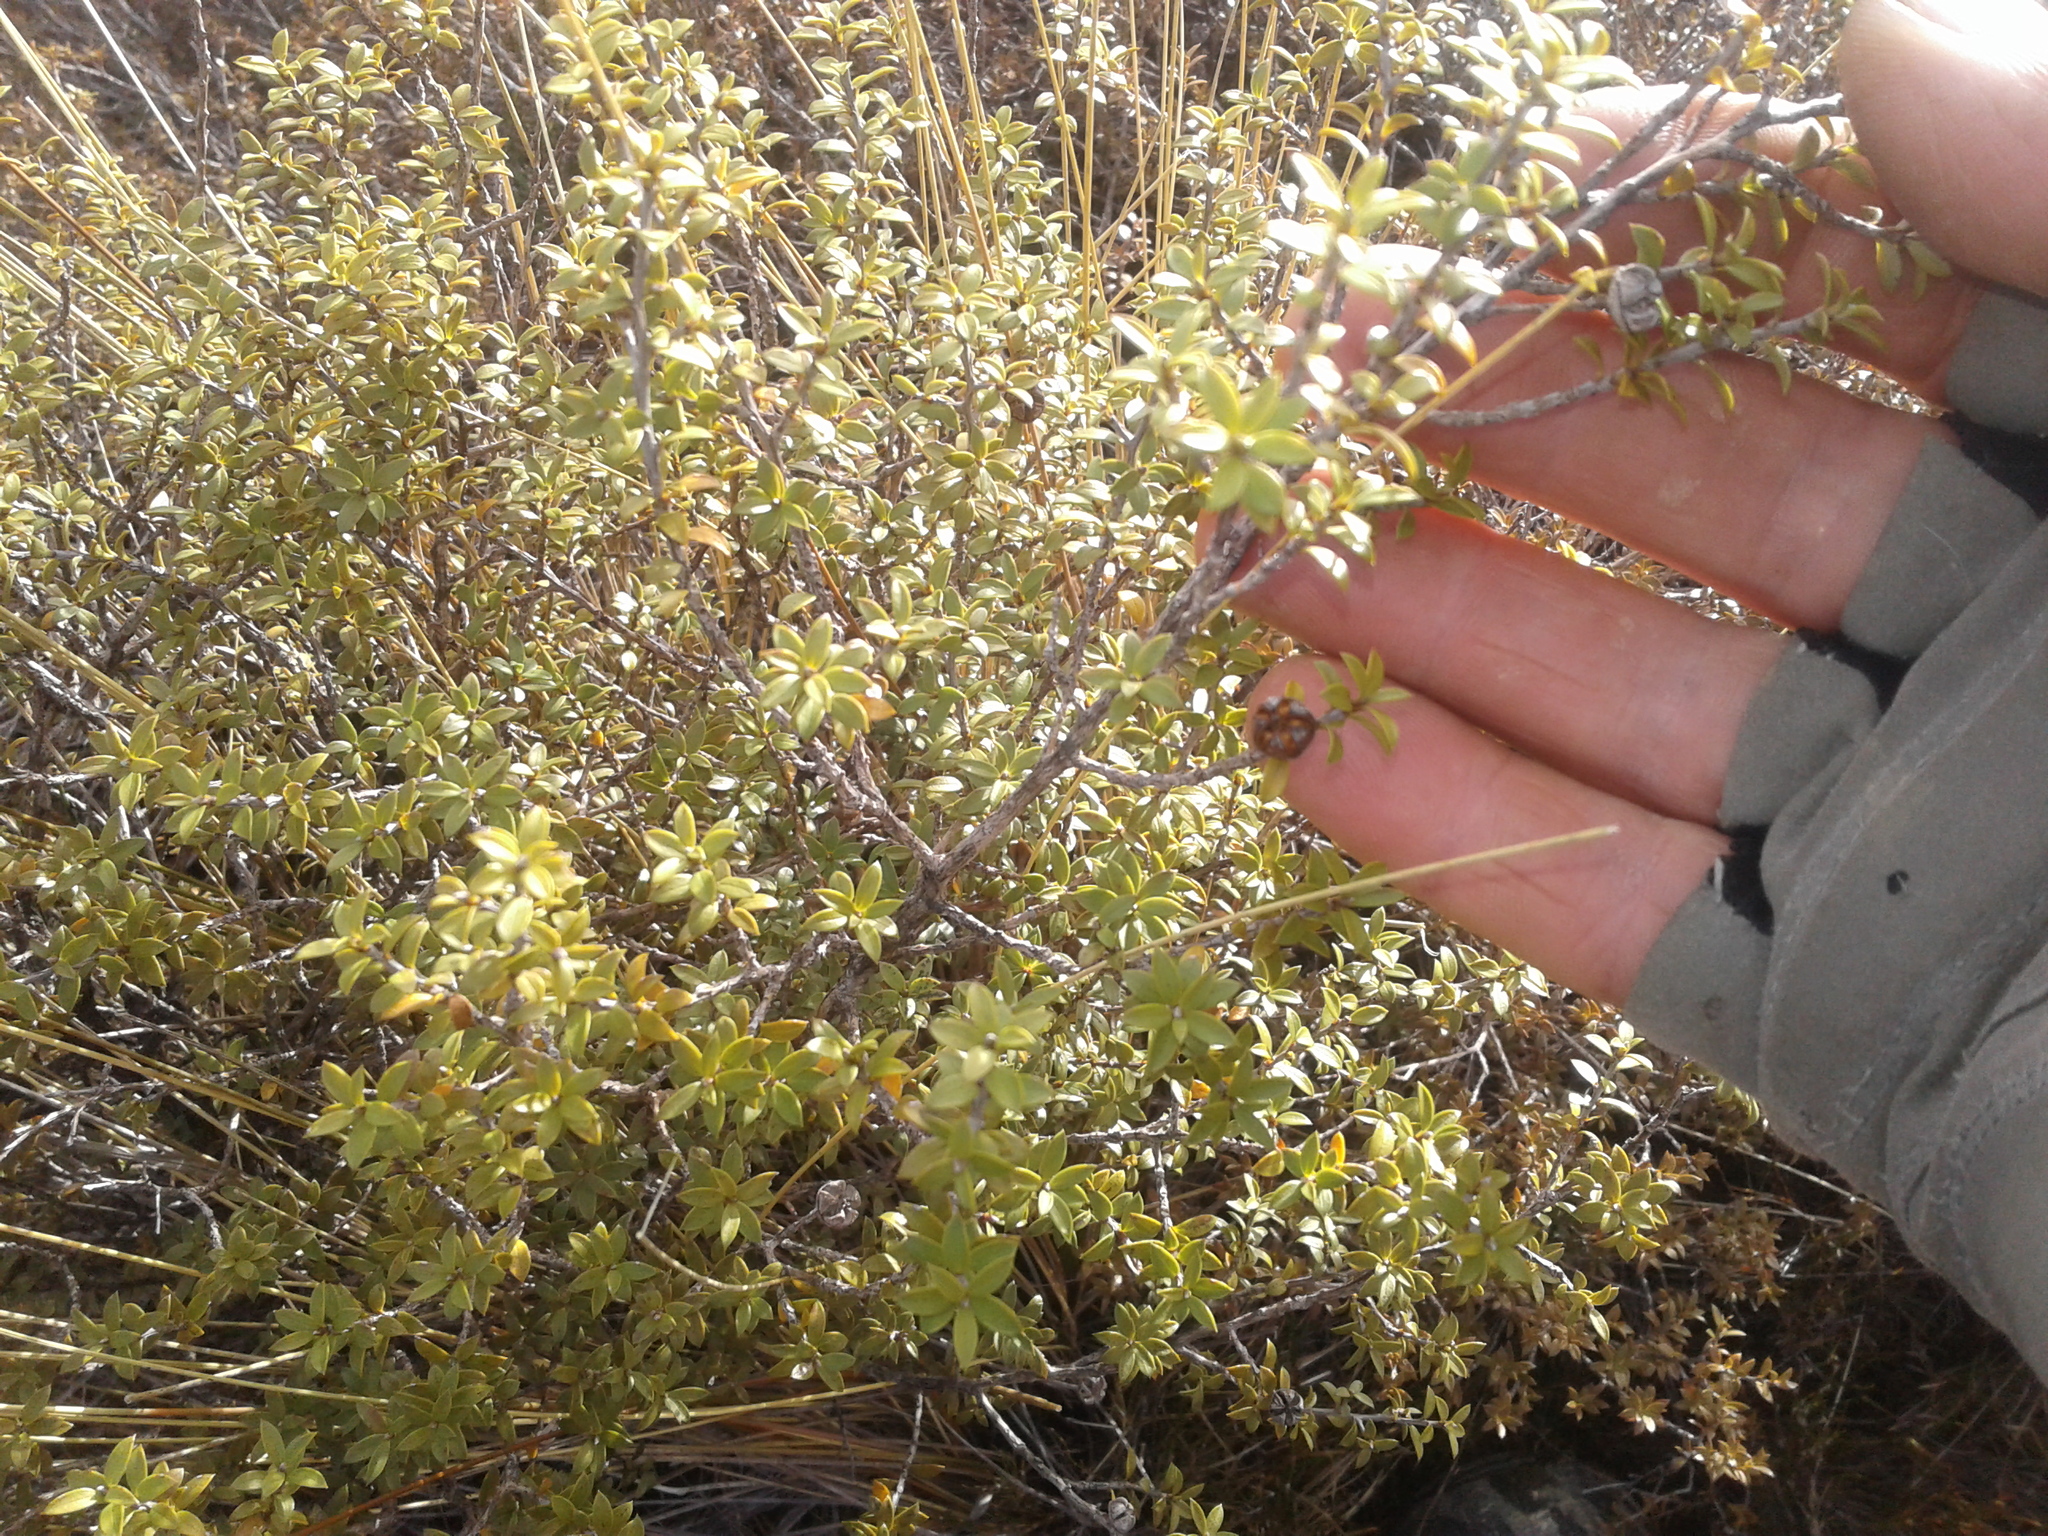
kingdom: Plantae
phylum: Tracheophyta
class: Magnoliopsida
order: Myrtales
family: Myrtaceae
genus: Leptospermum
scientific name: Leptospermum scoparium
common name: Broom tea-tree
